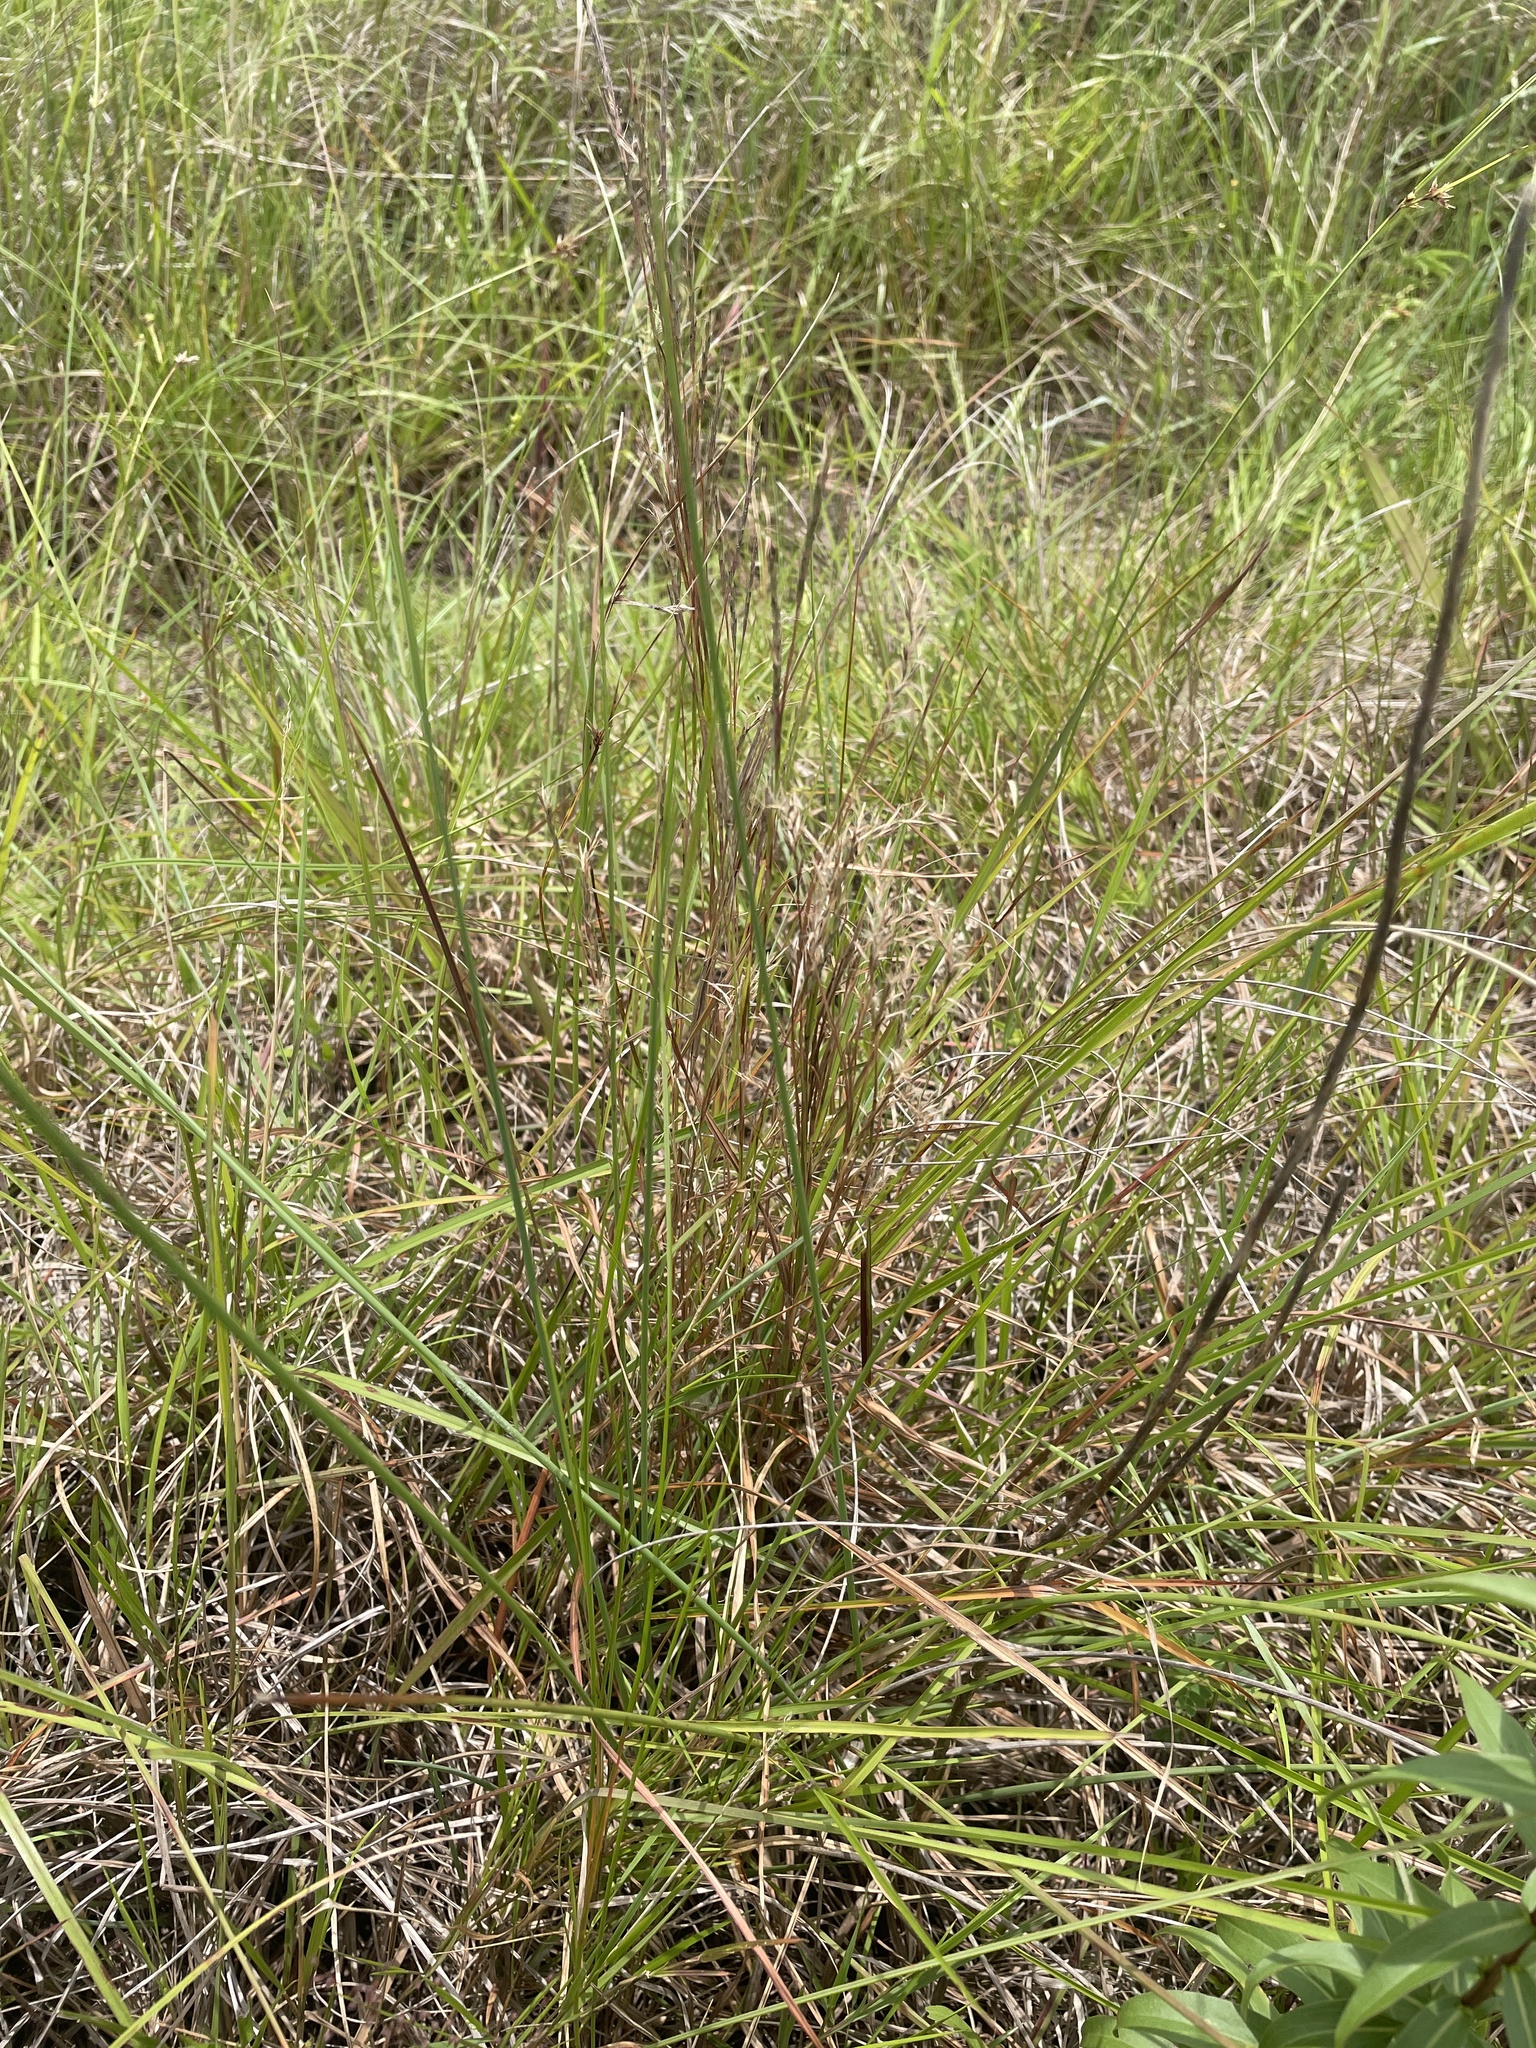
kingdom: Plantae
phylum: Tracheophyta
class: Liliopsida
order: Poales
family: Poaceae
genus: Schizachyrium
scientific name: Schizachyrium scoparium
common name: Little bluestem
